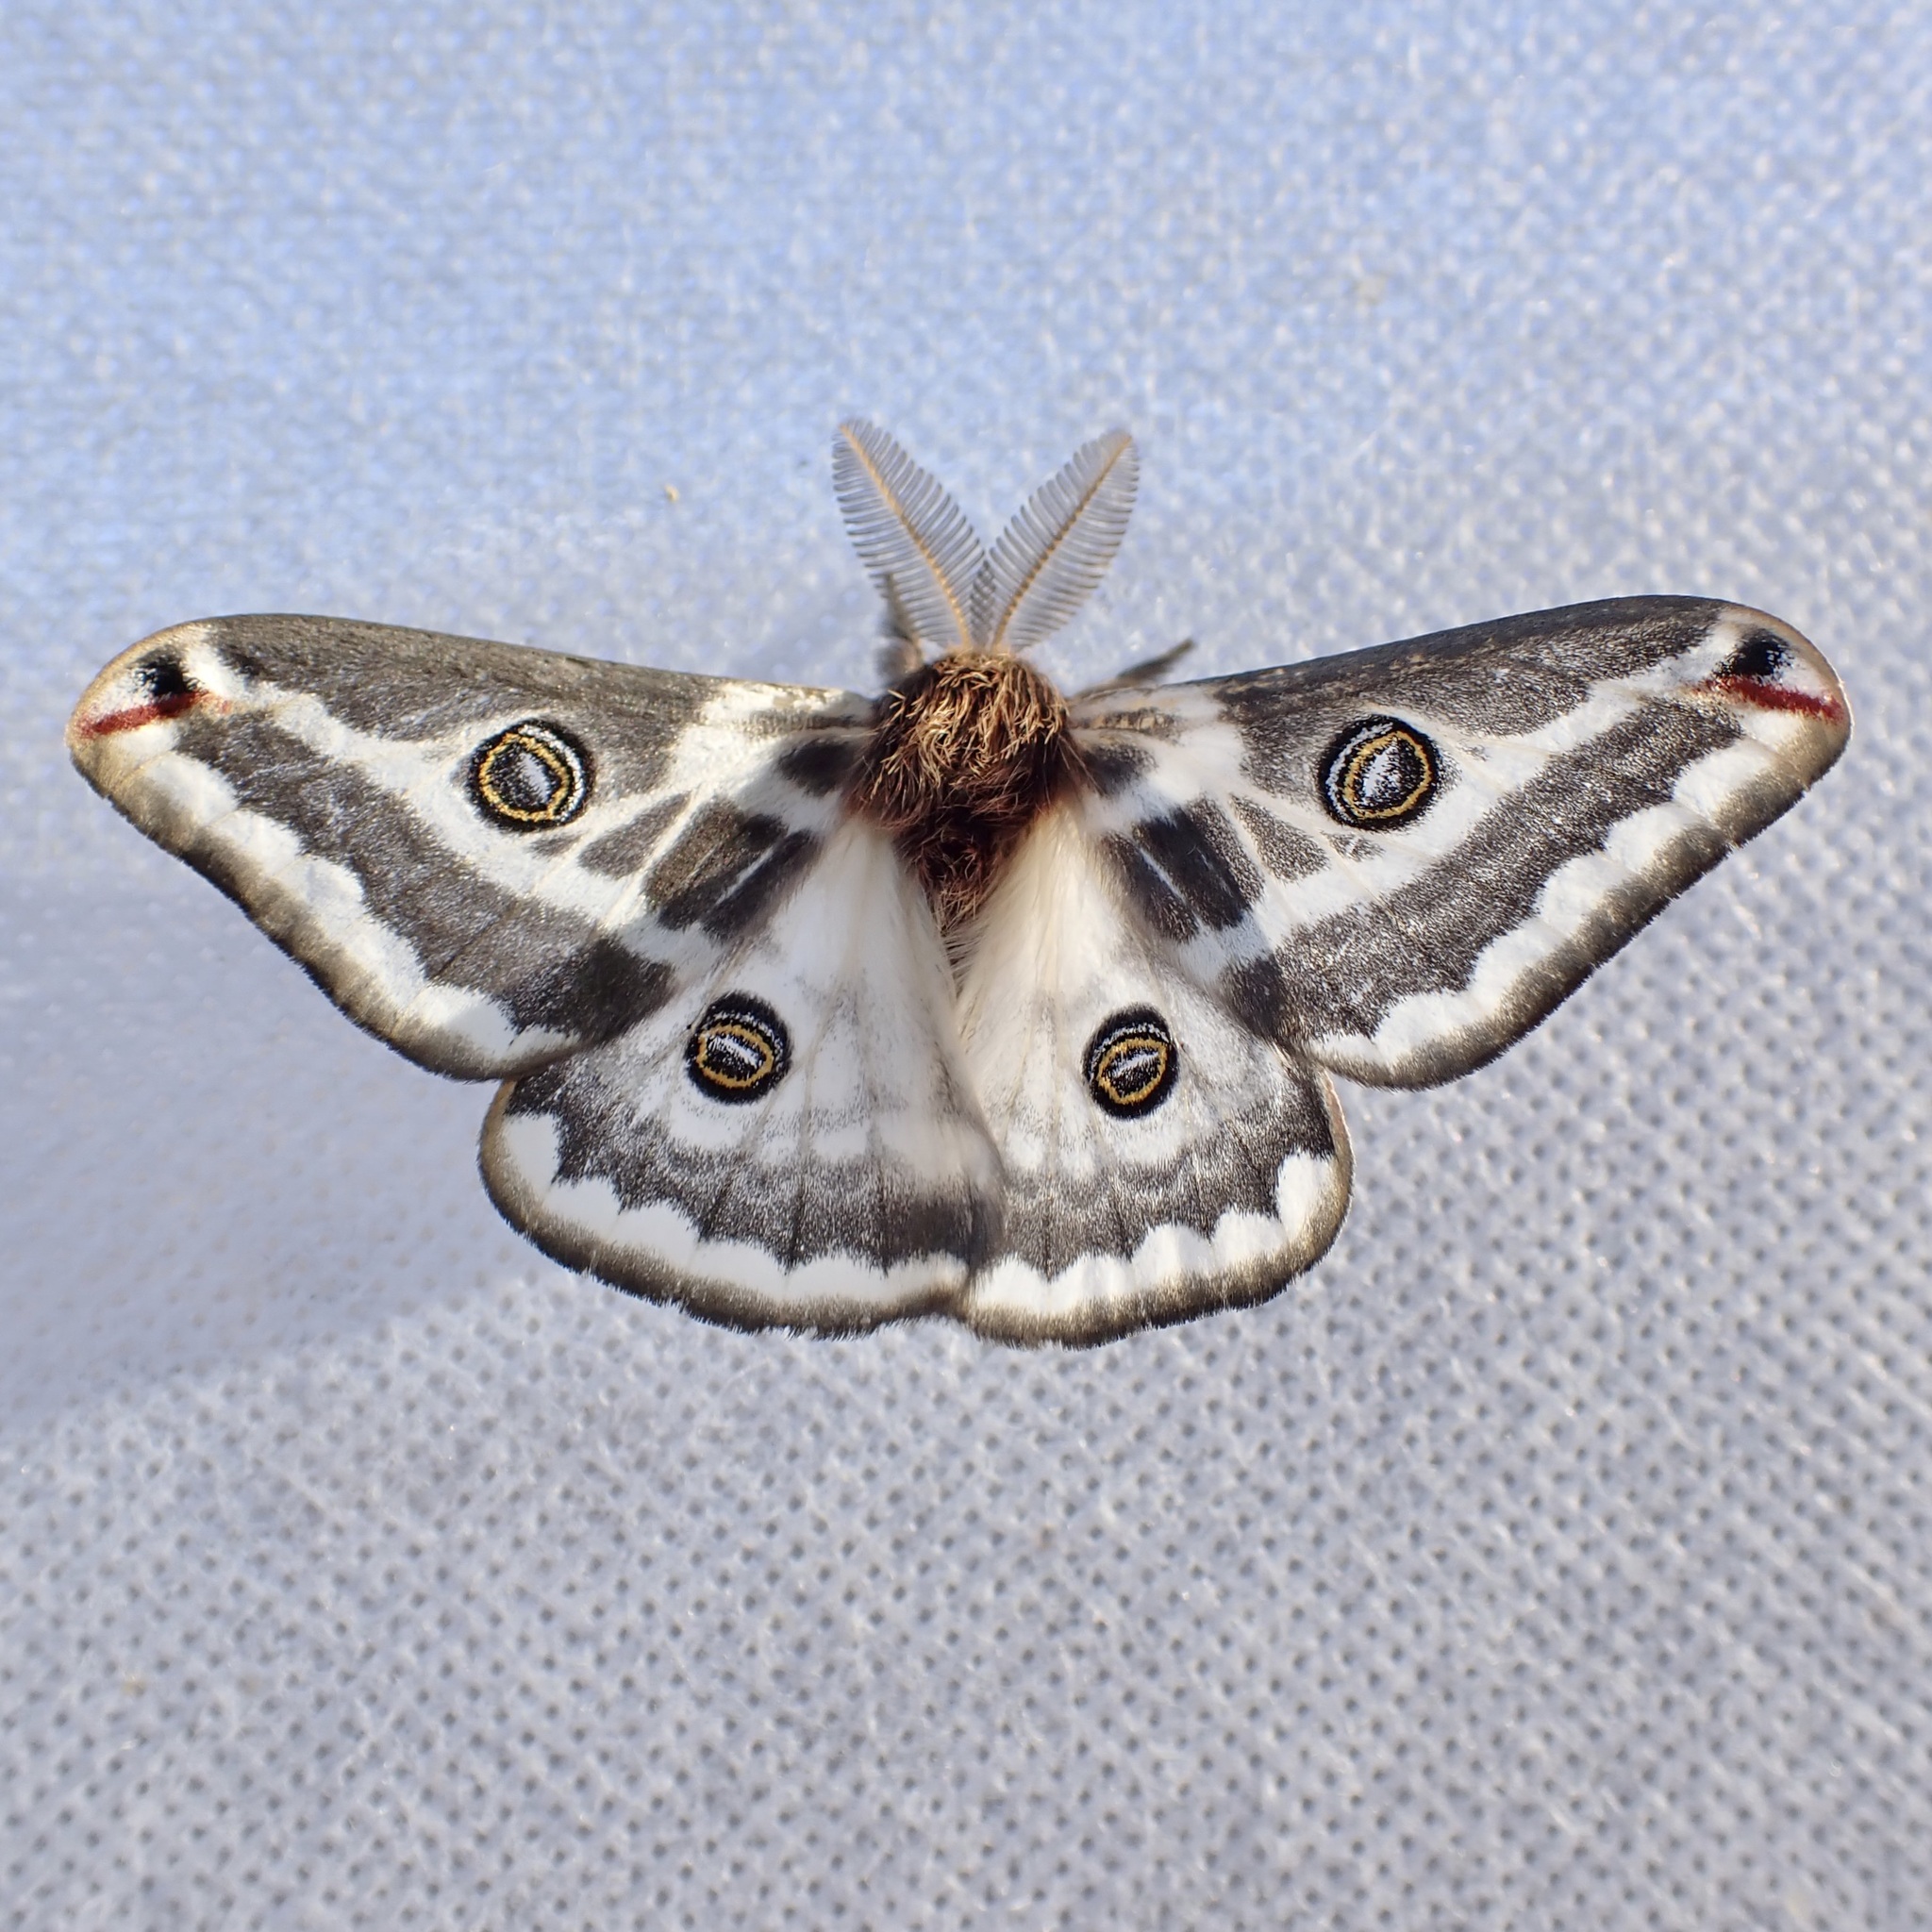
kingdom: Animalia
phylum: Arthropoda
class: Insecta
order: Lepidoptera
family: Saturniidae
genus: Saturnia
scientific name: Saturnia anona
